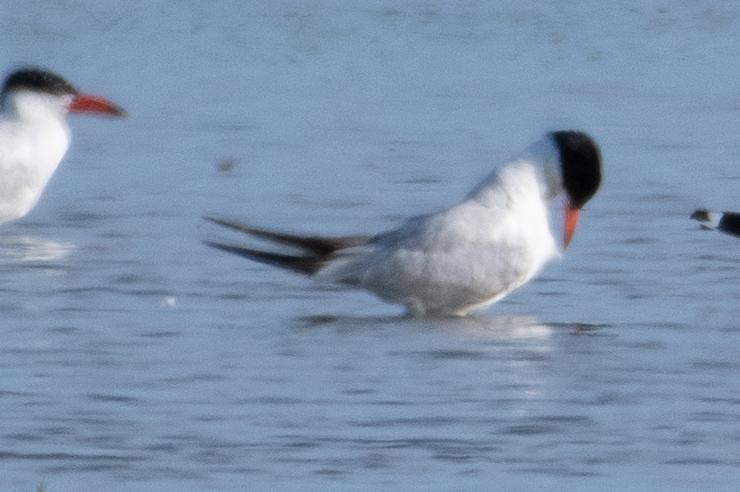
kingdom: Animalia
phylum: Chordata
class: Aves
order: Charadriiformes
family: Laridae
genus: Hydroprogne
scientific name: Hydroprogne caspia
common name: Caspian tern
